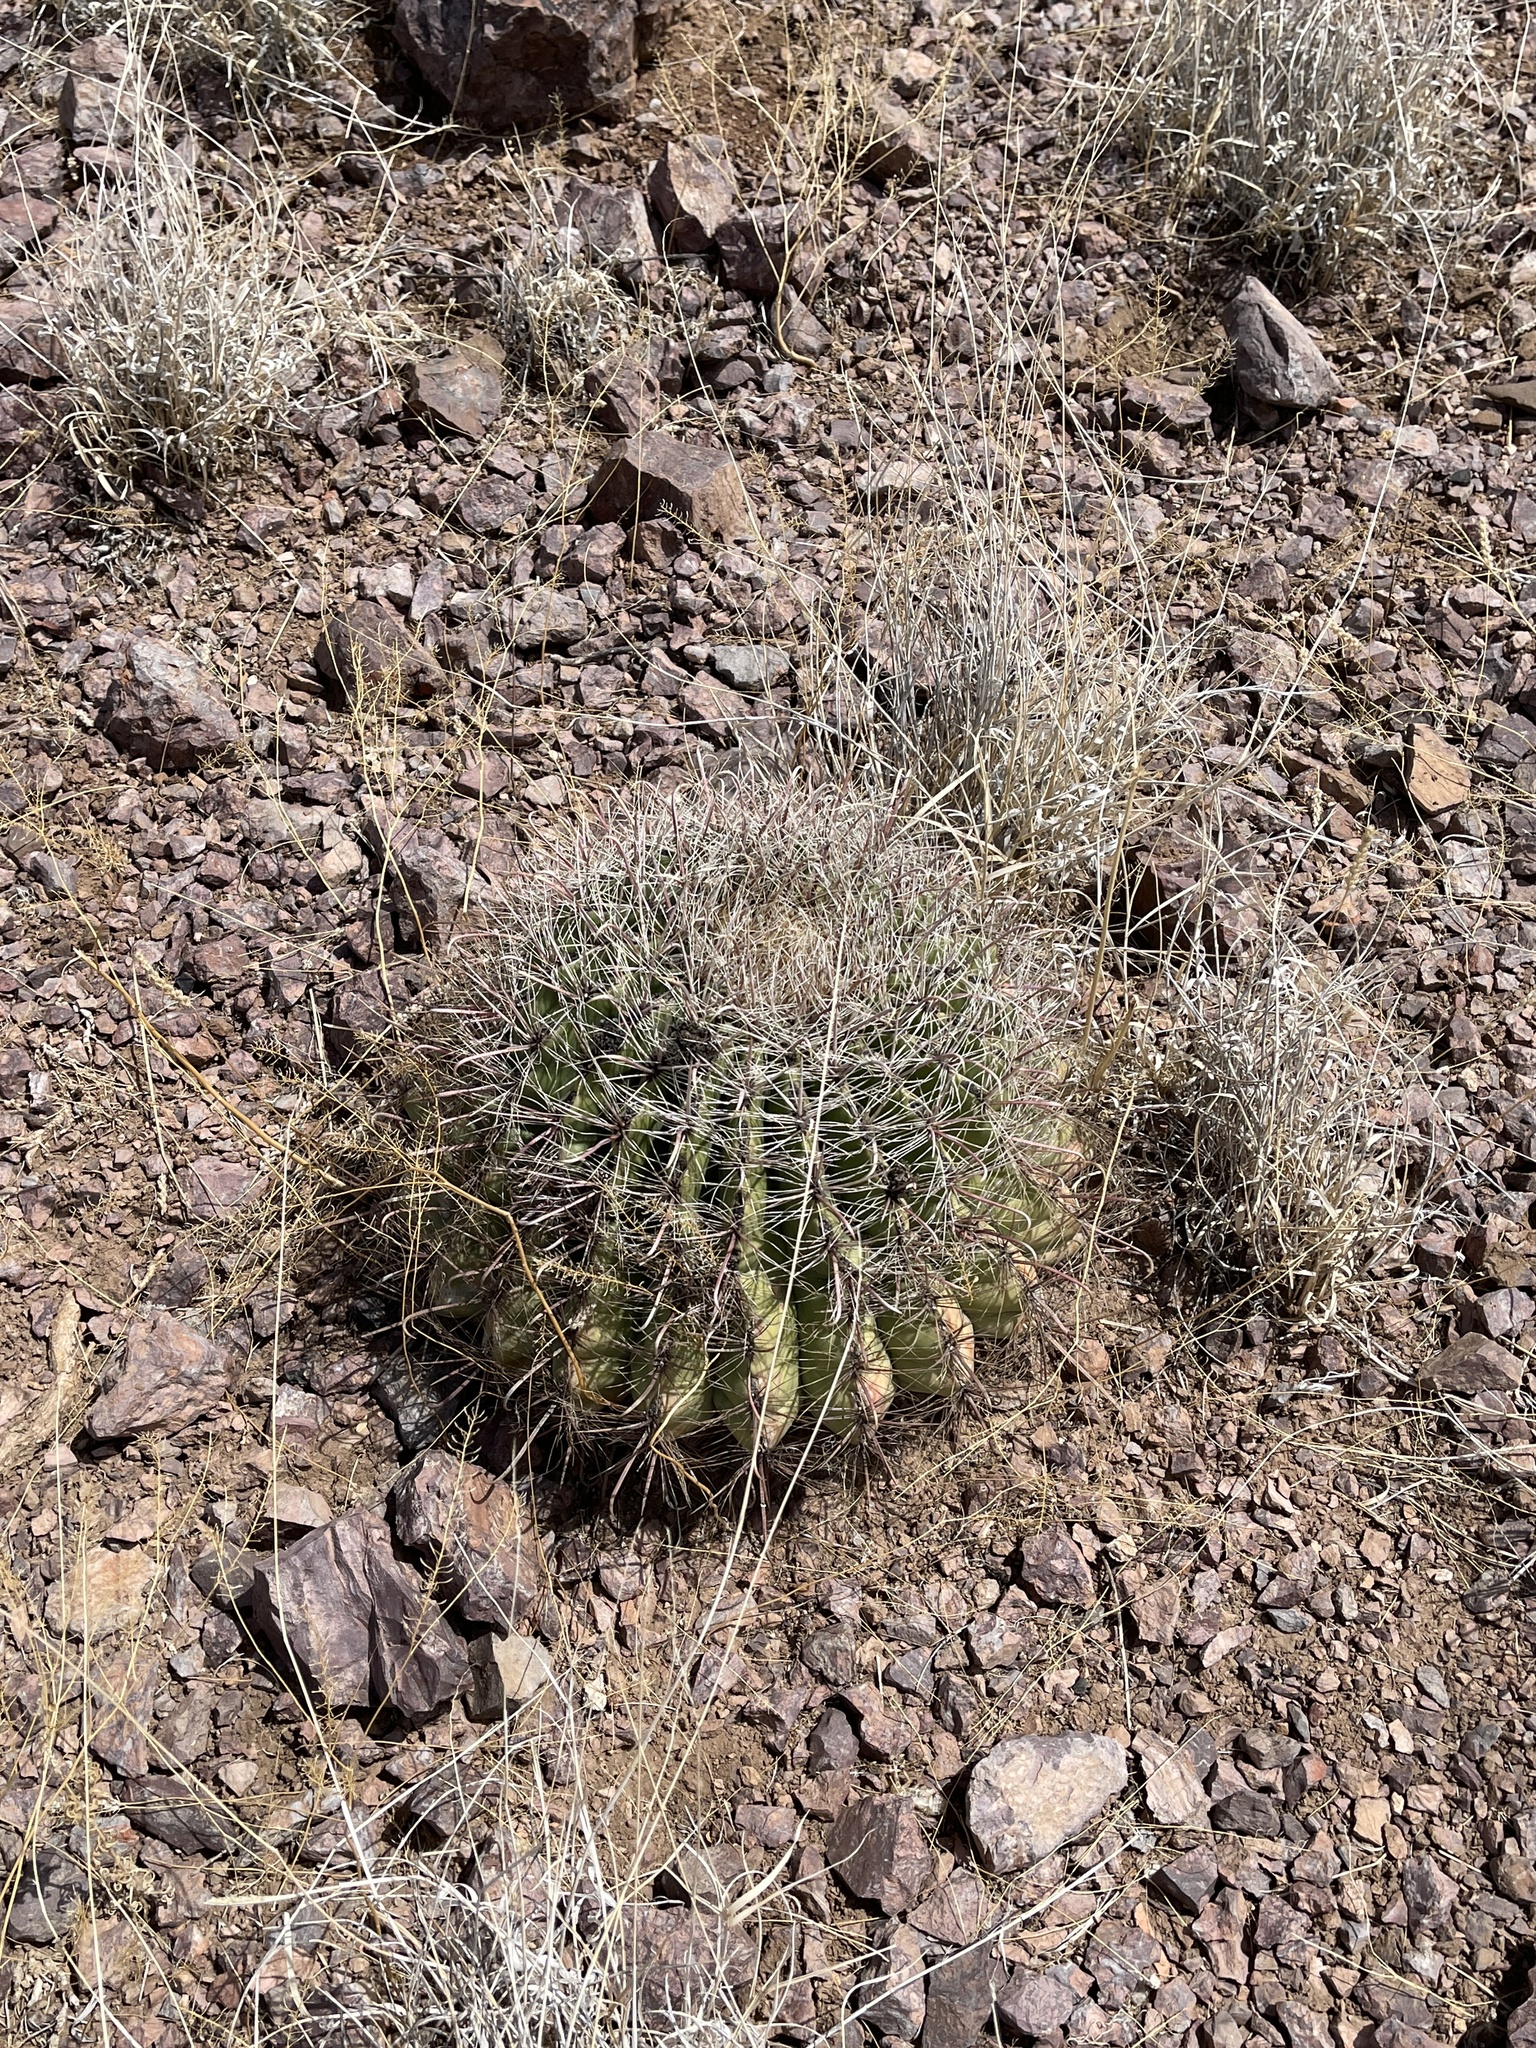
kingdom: Plantae
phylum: Tracheophyta
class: Magnoliopsida
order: Caryophyllales
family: Cactaceae
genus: Ferocactus
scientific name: Ferocactus wislizeni
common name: Candy barrel cactus
